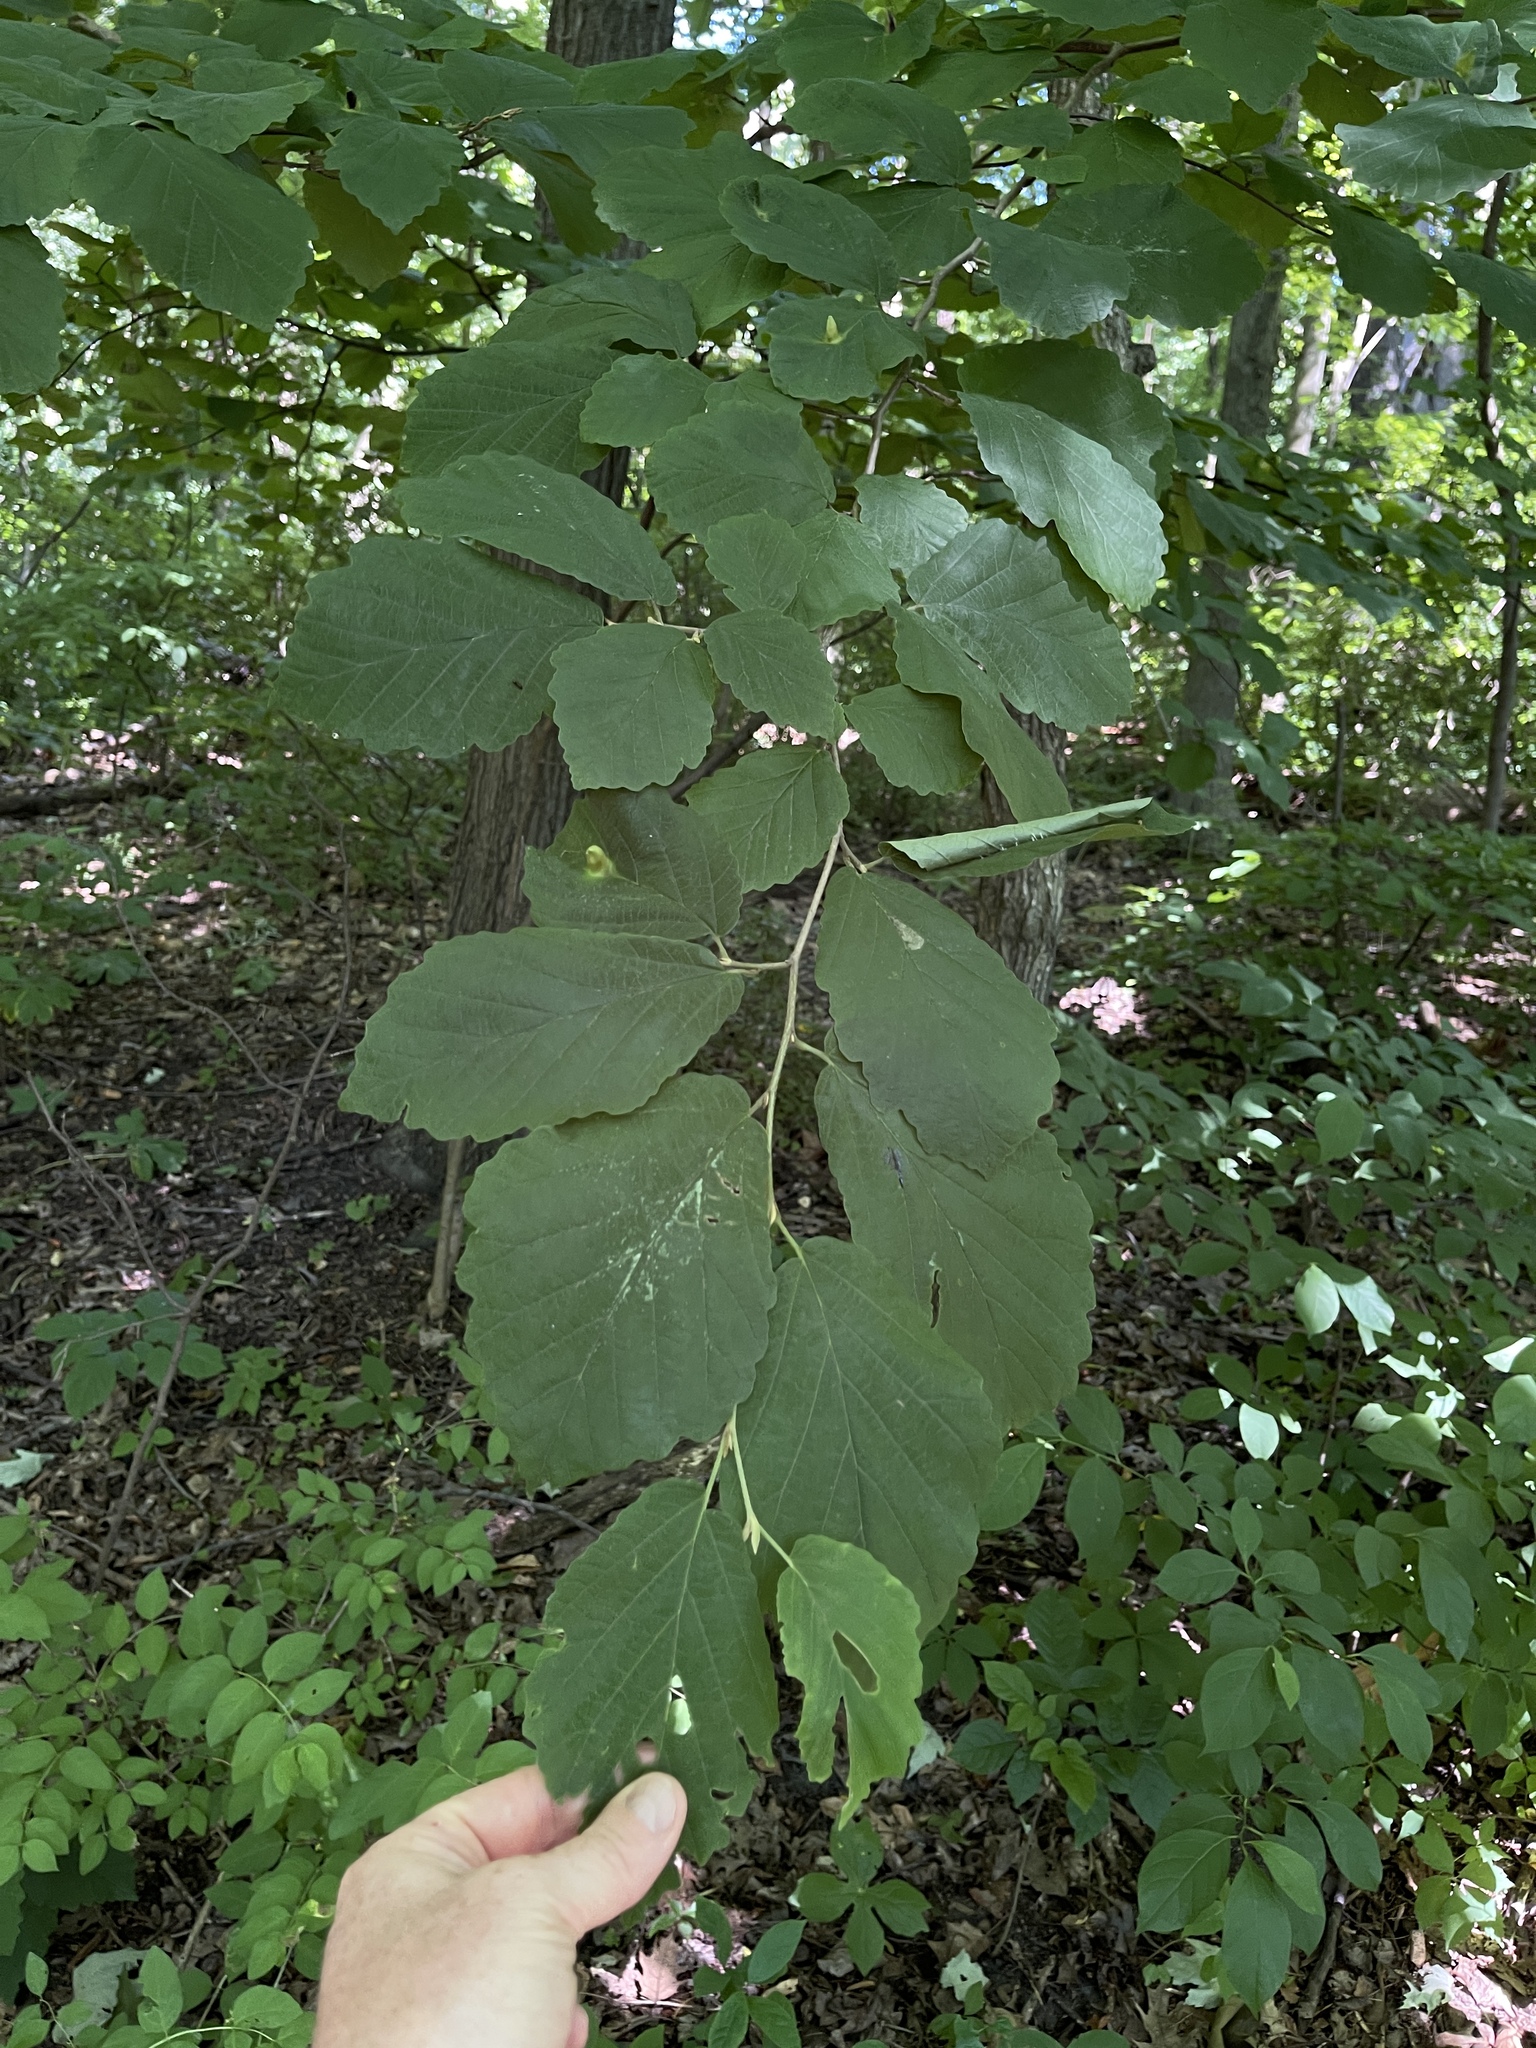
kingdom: Plantae
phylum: Tracheophyta
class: Magnoliopsida
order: Saxifragales
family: Hamamelidaceae
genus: Hamamelis
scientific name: Hamamelis virginiana
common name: Witch-hazel
